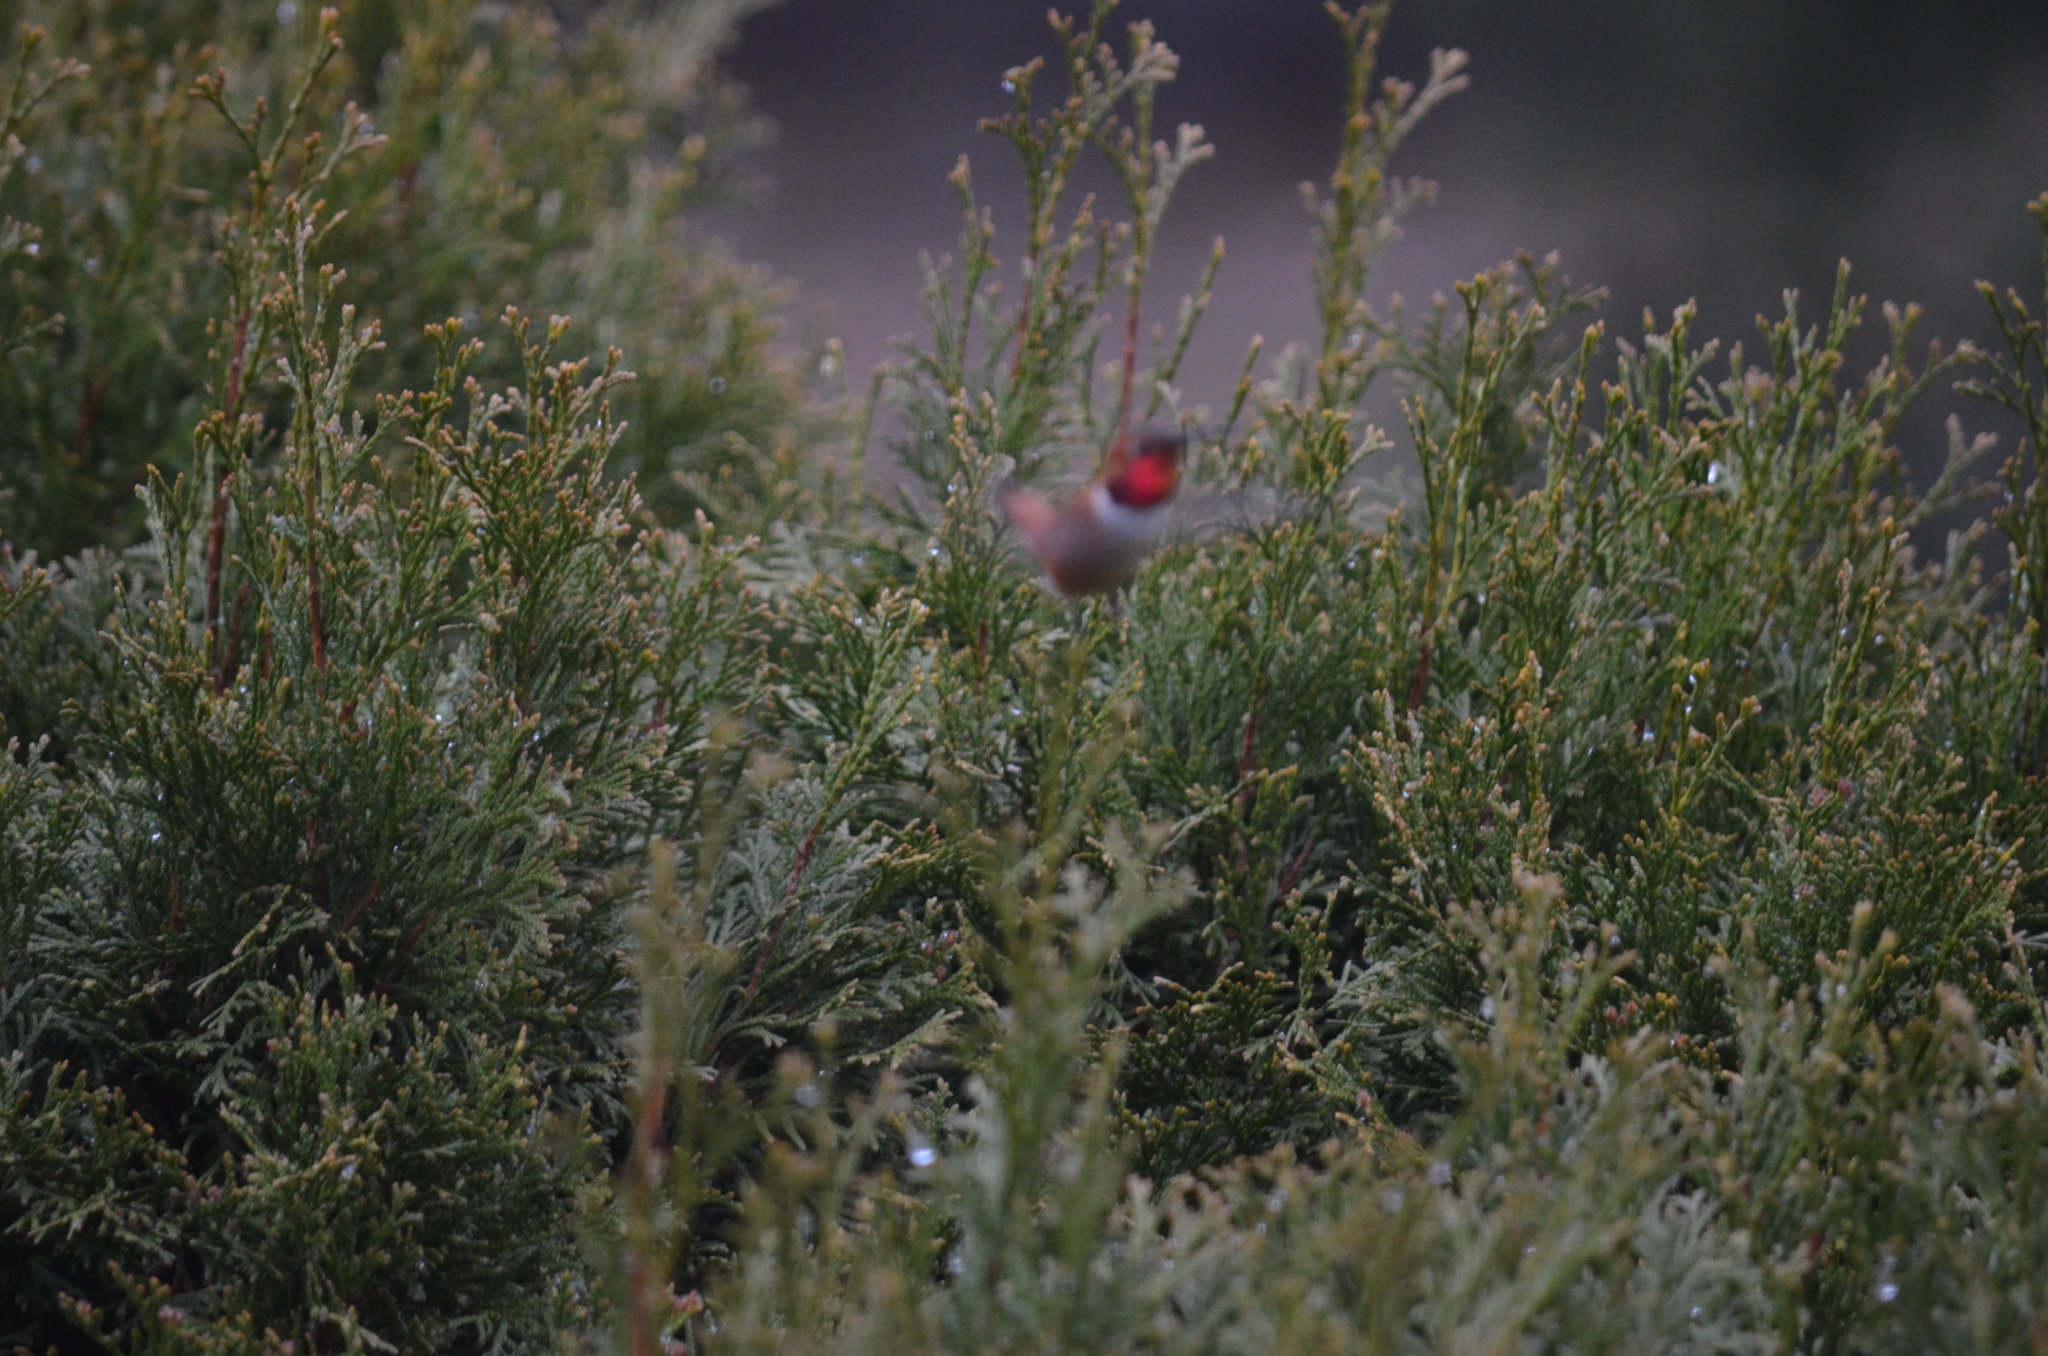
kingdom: Animalia
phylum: Chordata
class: Aves
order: Apodiformes
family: Trochilidae
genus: Selasphorus
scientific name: Selasphorus rufus
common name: Rufous hummingbird
